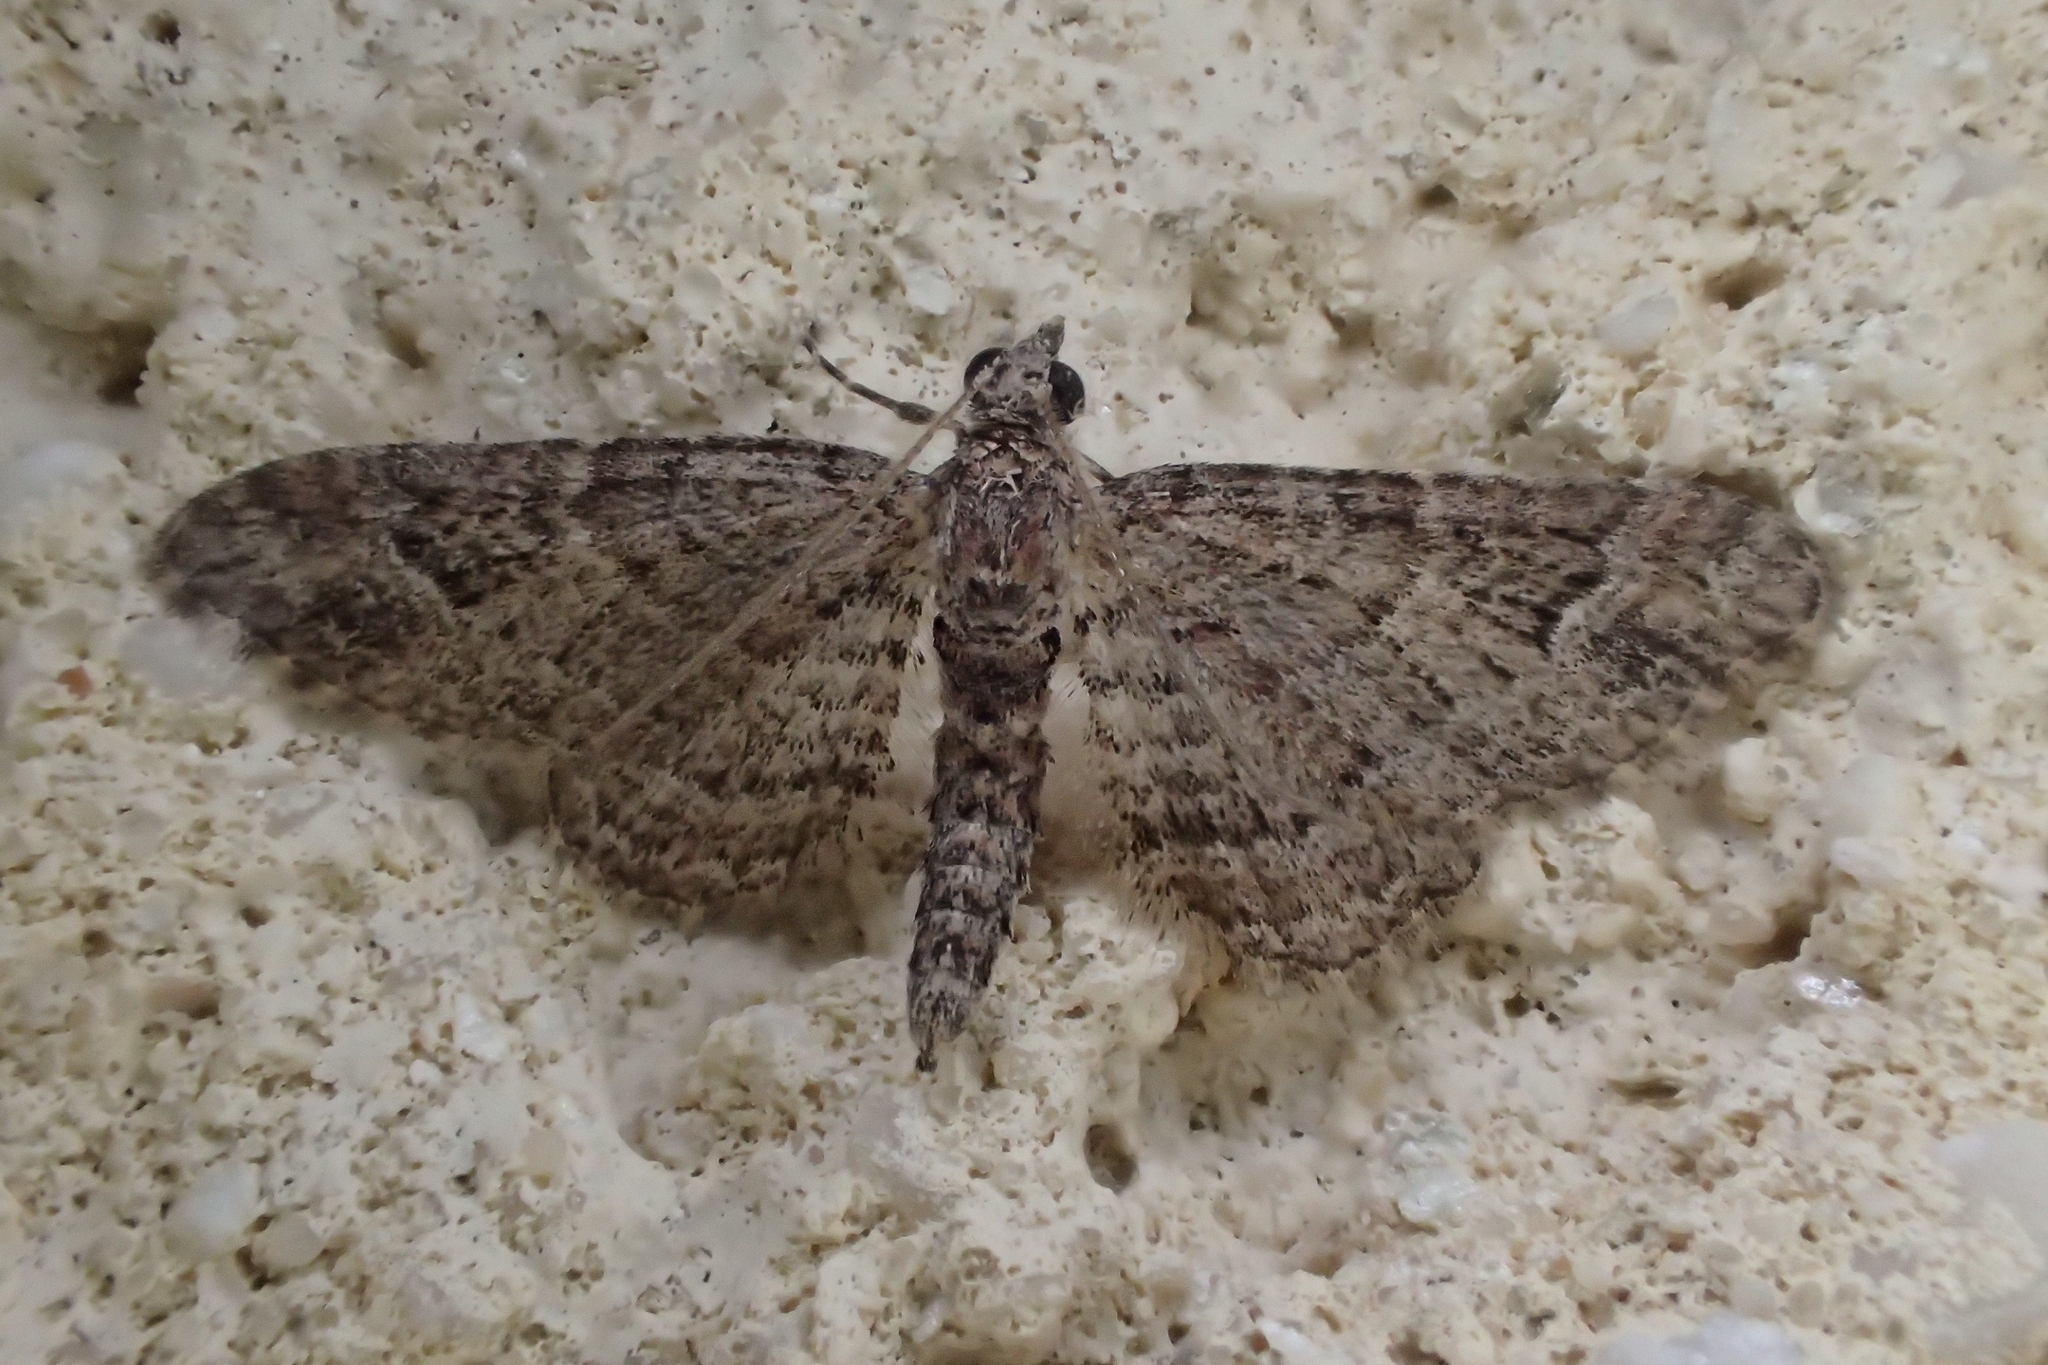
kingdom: Animalia
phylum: Arthropoda
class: Insecta
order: Lepidoptera
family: Geometridae
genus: Gymnoscelis
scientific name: Gymnoscelis rufifasciata
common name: Double-striped pug
